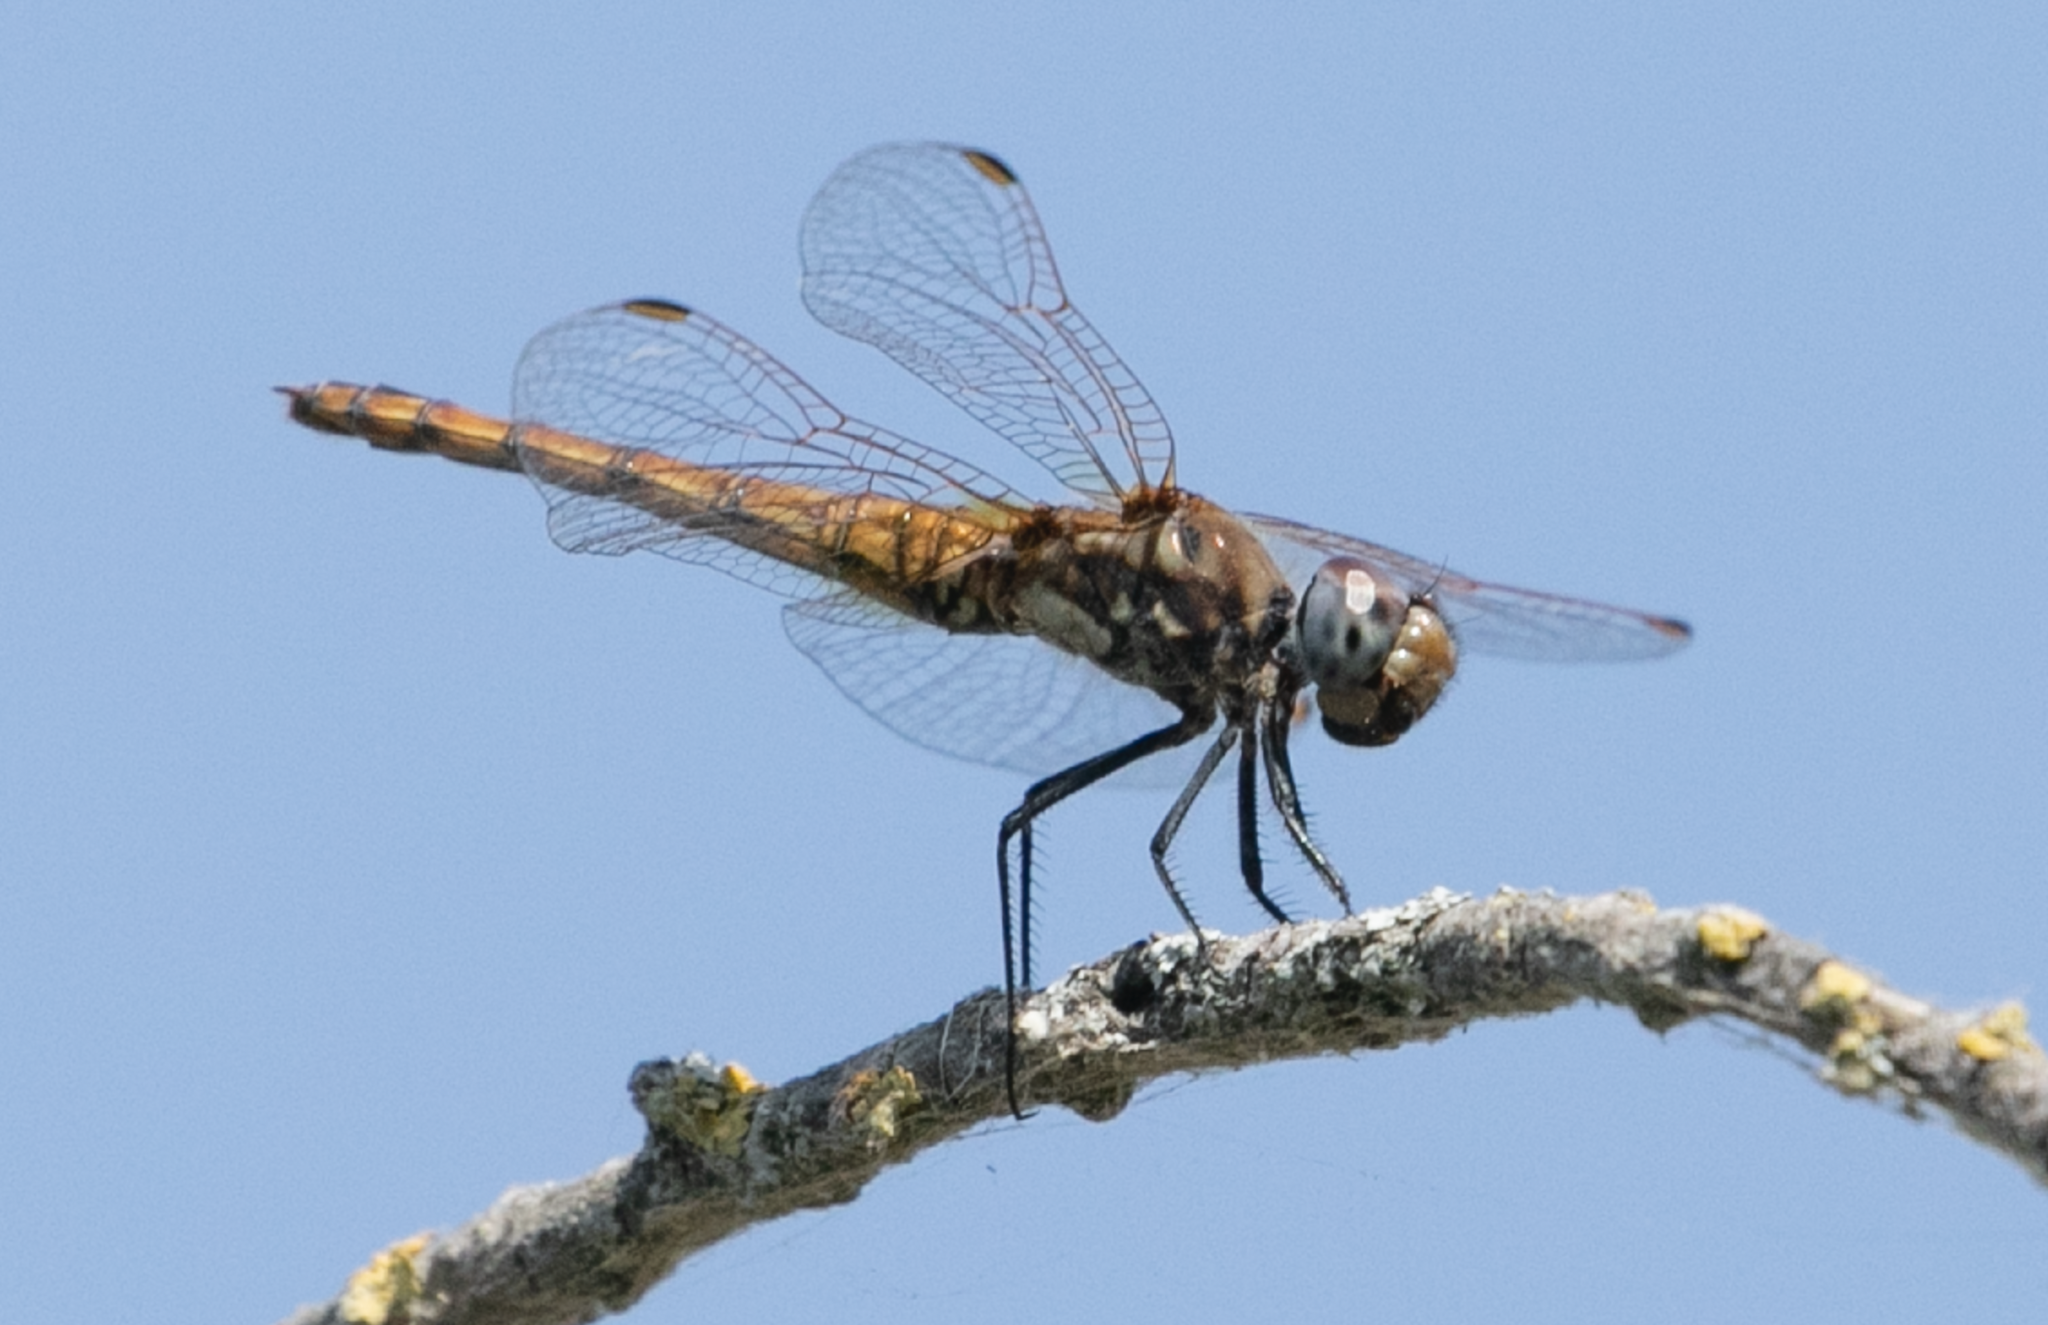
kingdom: Animalia
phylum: Arthropoda
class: Insecta
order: Odonata
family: Libellulidae
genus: Trithemis
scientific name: Trithemis annulata
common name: Violet dropwing
